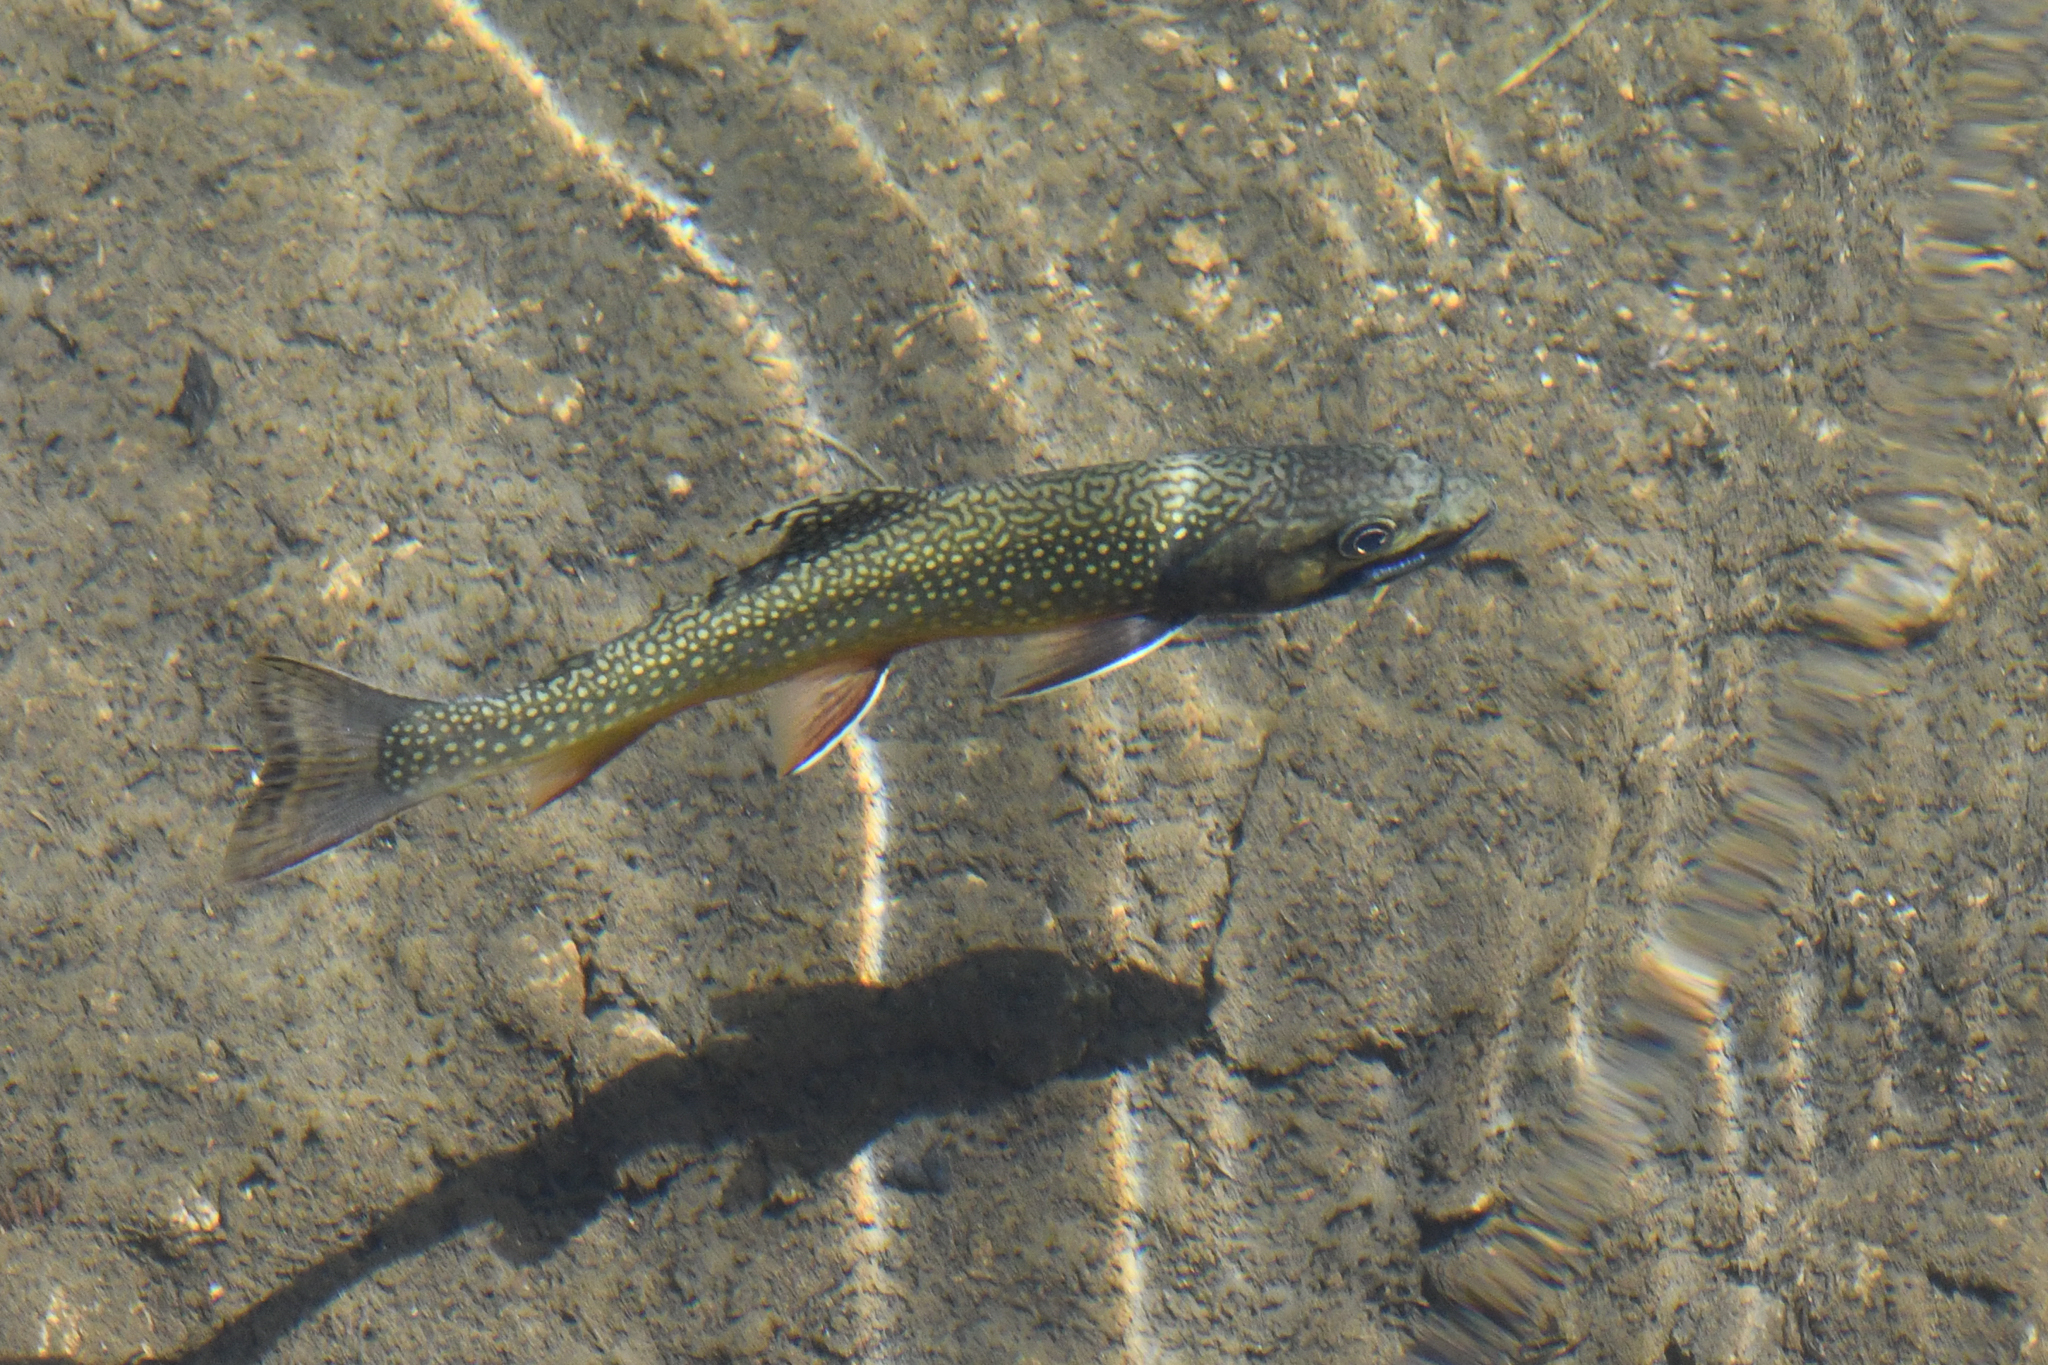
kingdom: Animalia
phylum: Chordata
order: Salmoniformes
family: Salmonidae
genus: Salvelinus
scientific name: Salvelinus fontinalis
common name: Brook trout
